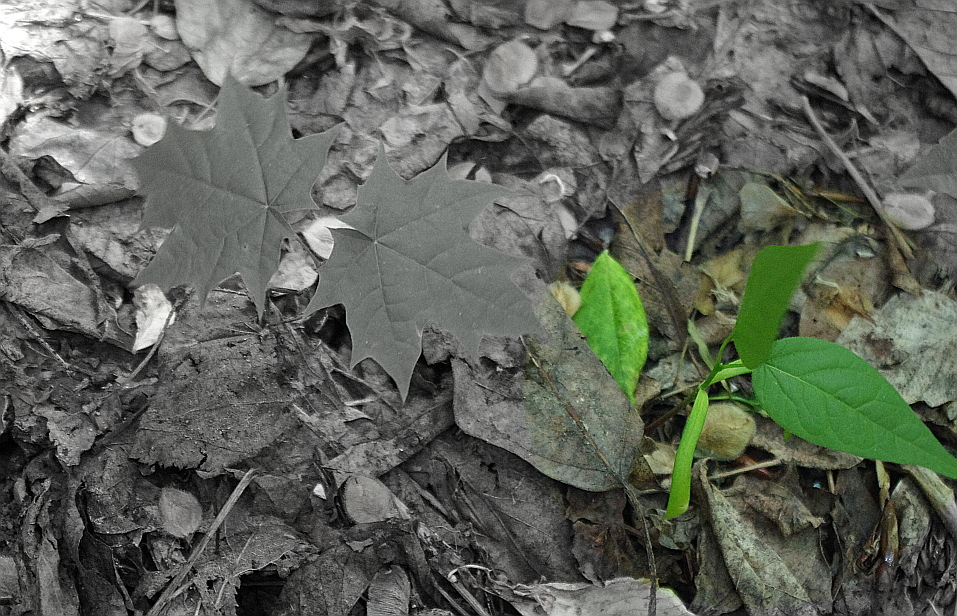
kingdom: Plantae
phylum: Tracheophyta
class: Magnoliopsida
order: Sapindales
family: Sapindaceae
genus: Acer
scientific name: Acer negundo
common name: Ashleaf maple
